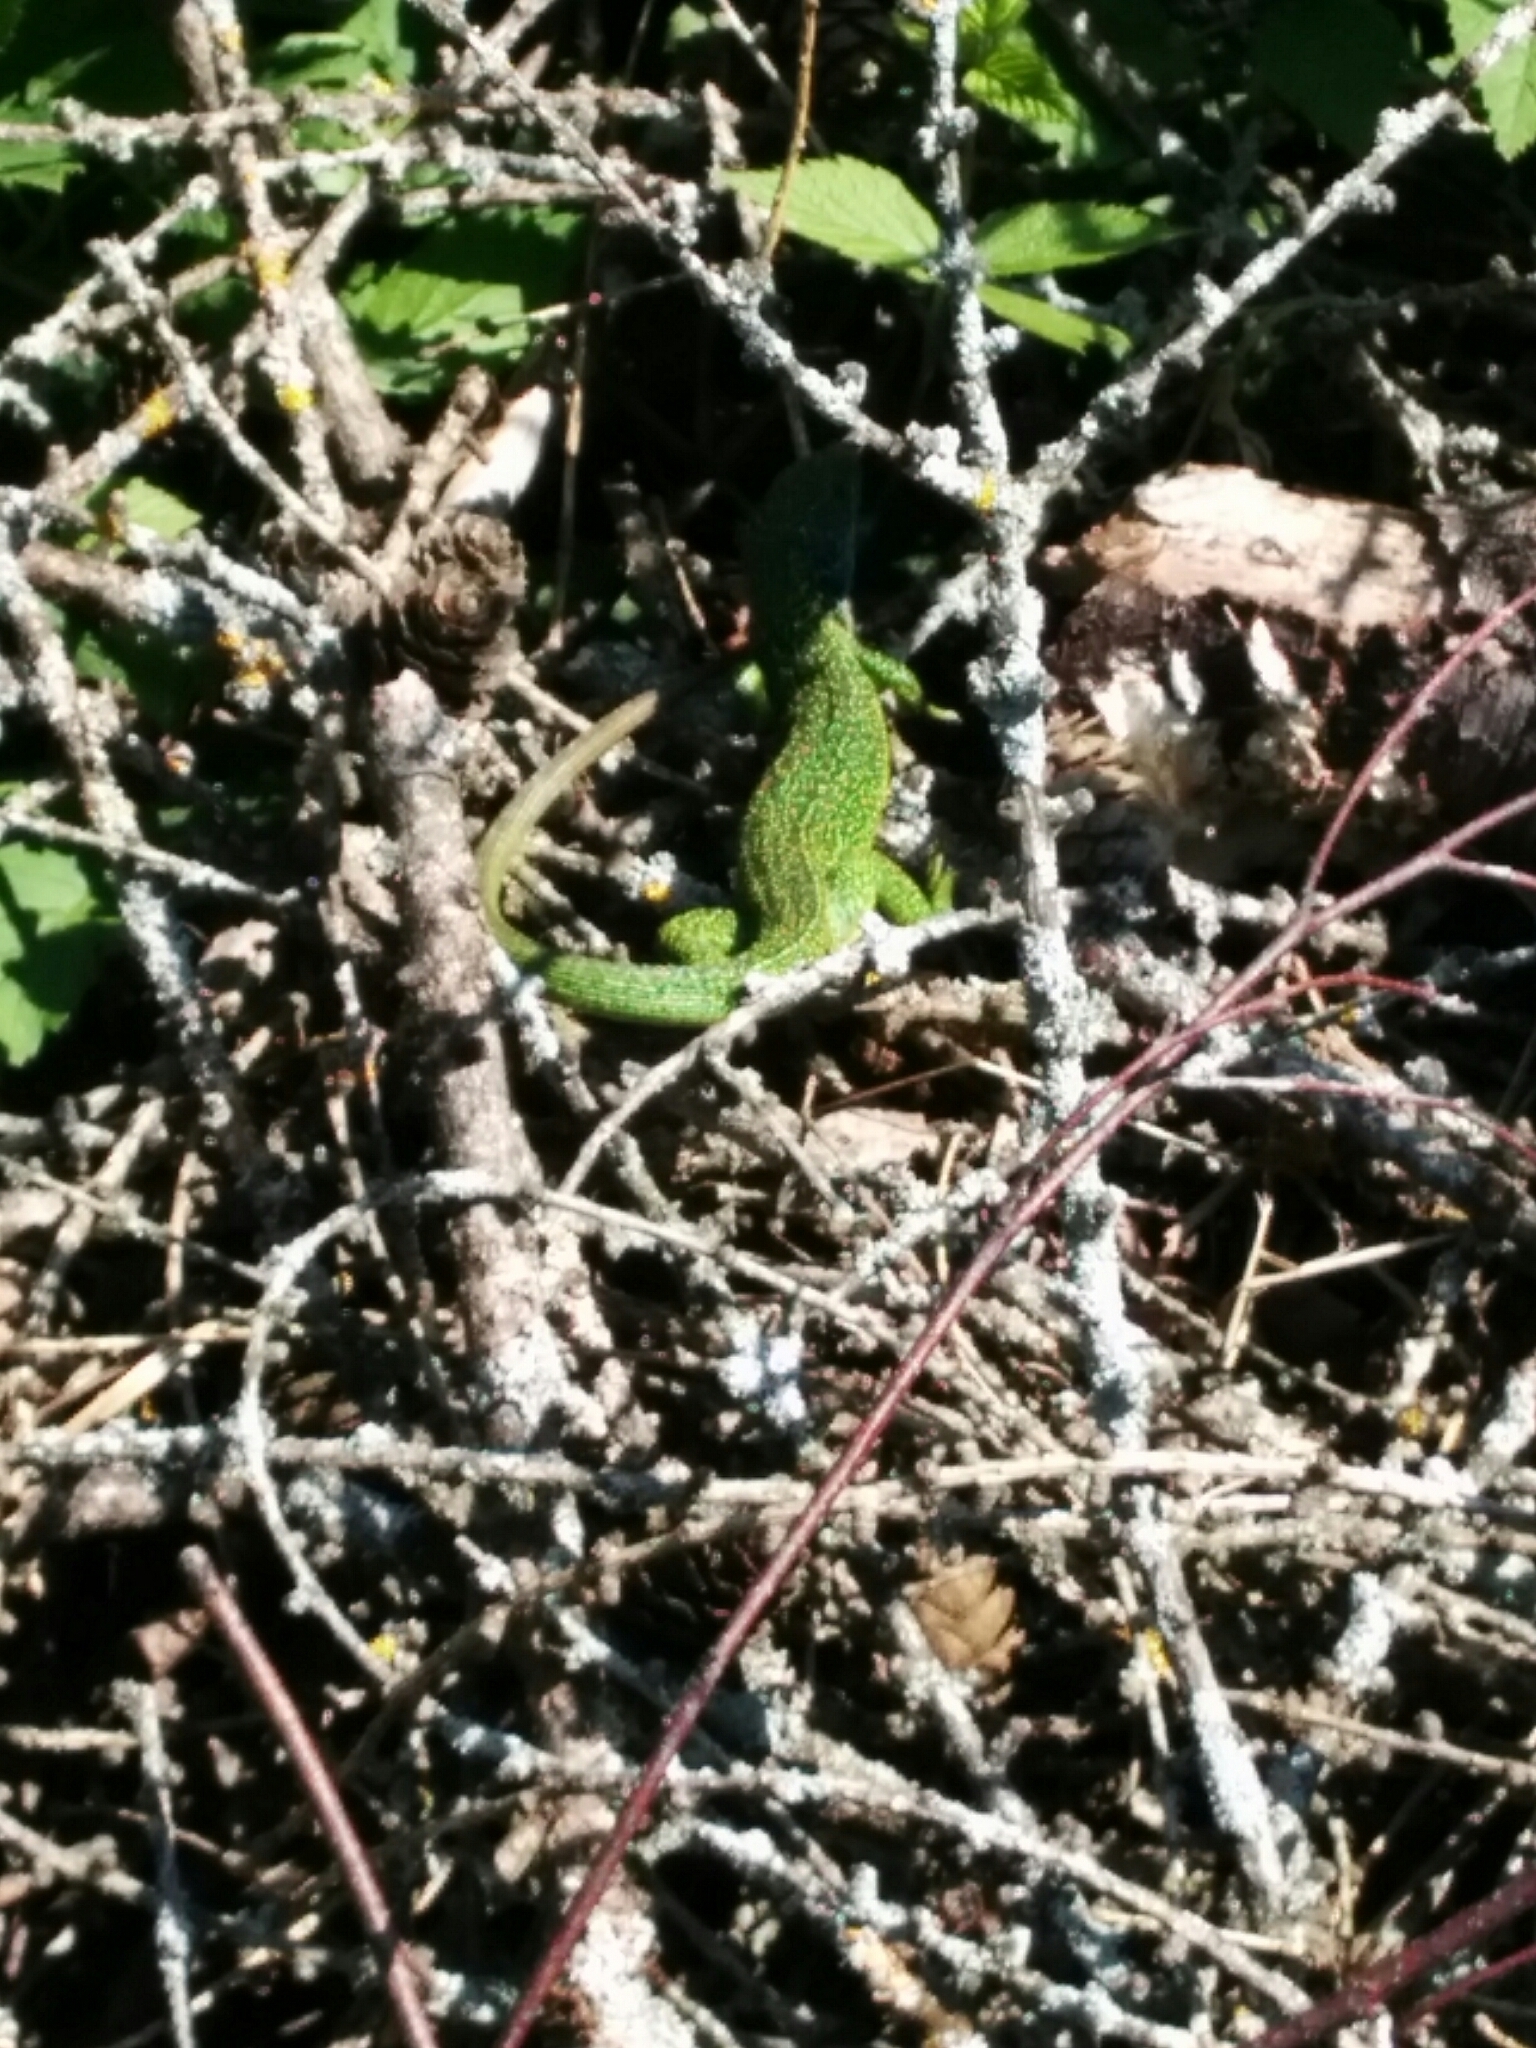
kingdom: Animalia
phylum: Chordata
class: Squamata
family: Lacertidae
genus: Lacerta
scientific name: Lacerta bilineata
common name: Western green lizard
